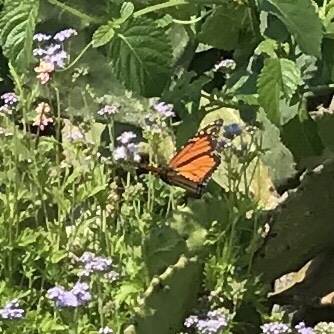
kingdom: Animalia
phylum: Arthropoda
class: Insecta
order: Lepidoptera
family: Nymphalidae
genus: Danaus
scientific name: Danaus plexippus
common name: Monarch
